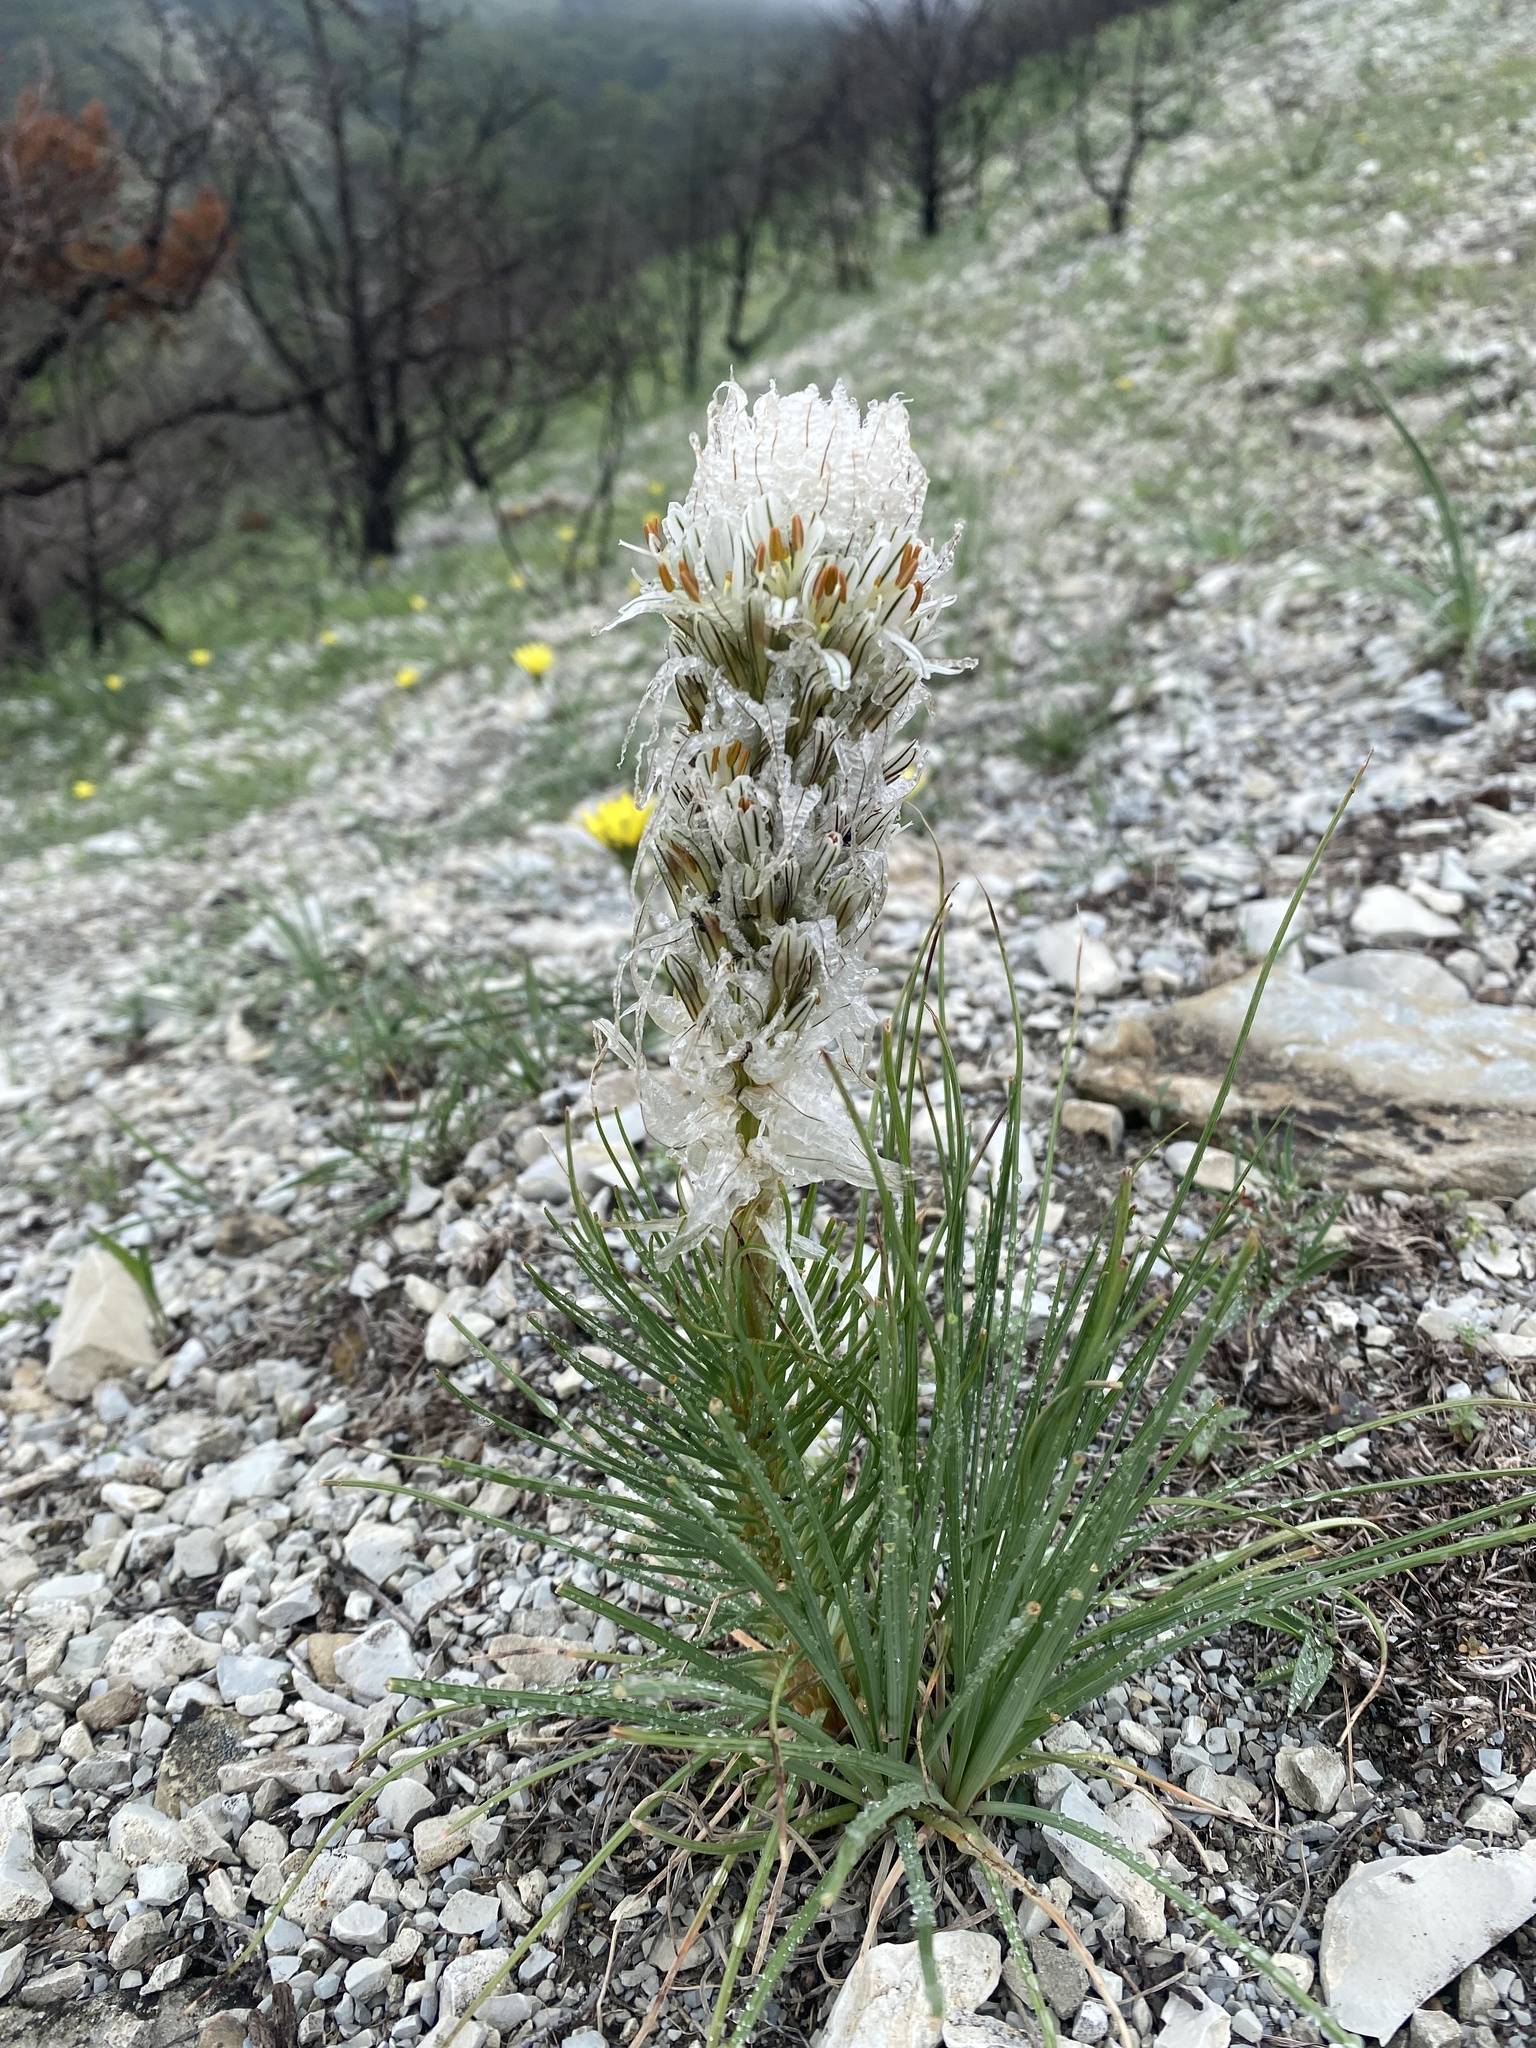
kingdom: Plantae
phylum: Tracheophyta
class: Liliopsida
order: Asparagales
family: Asphodelaceae
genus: Asphodeline
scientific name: Asphodeline taurica
